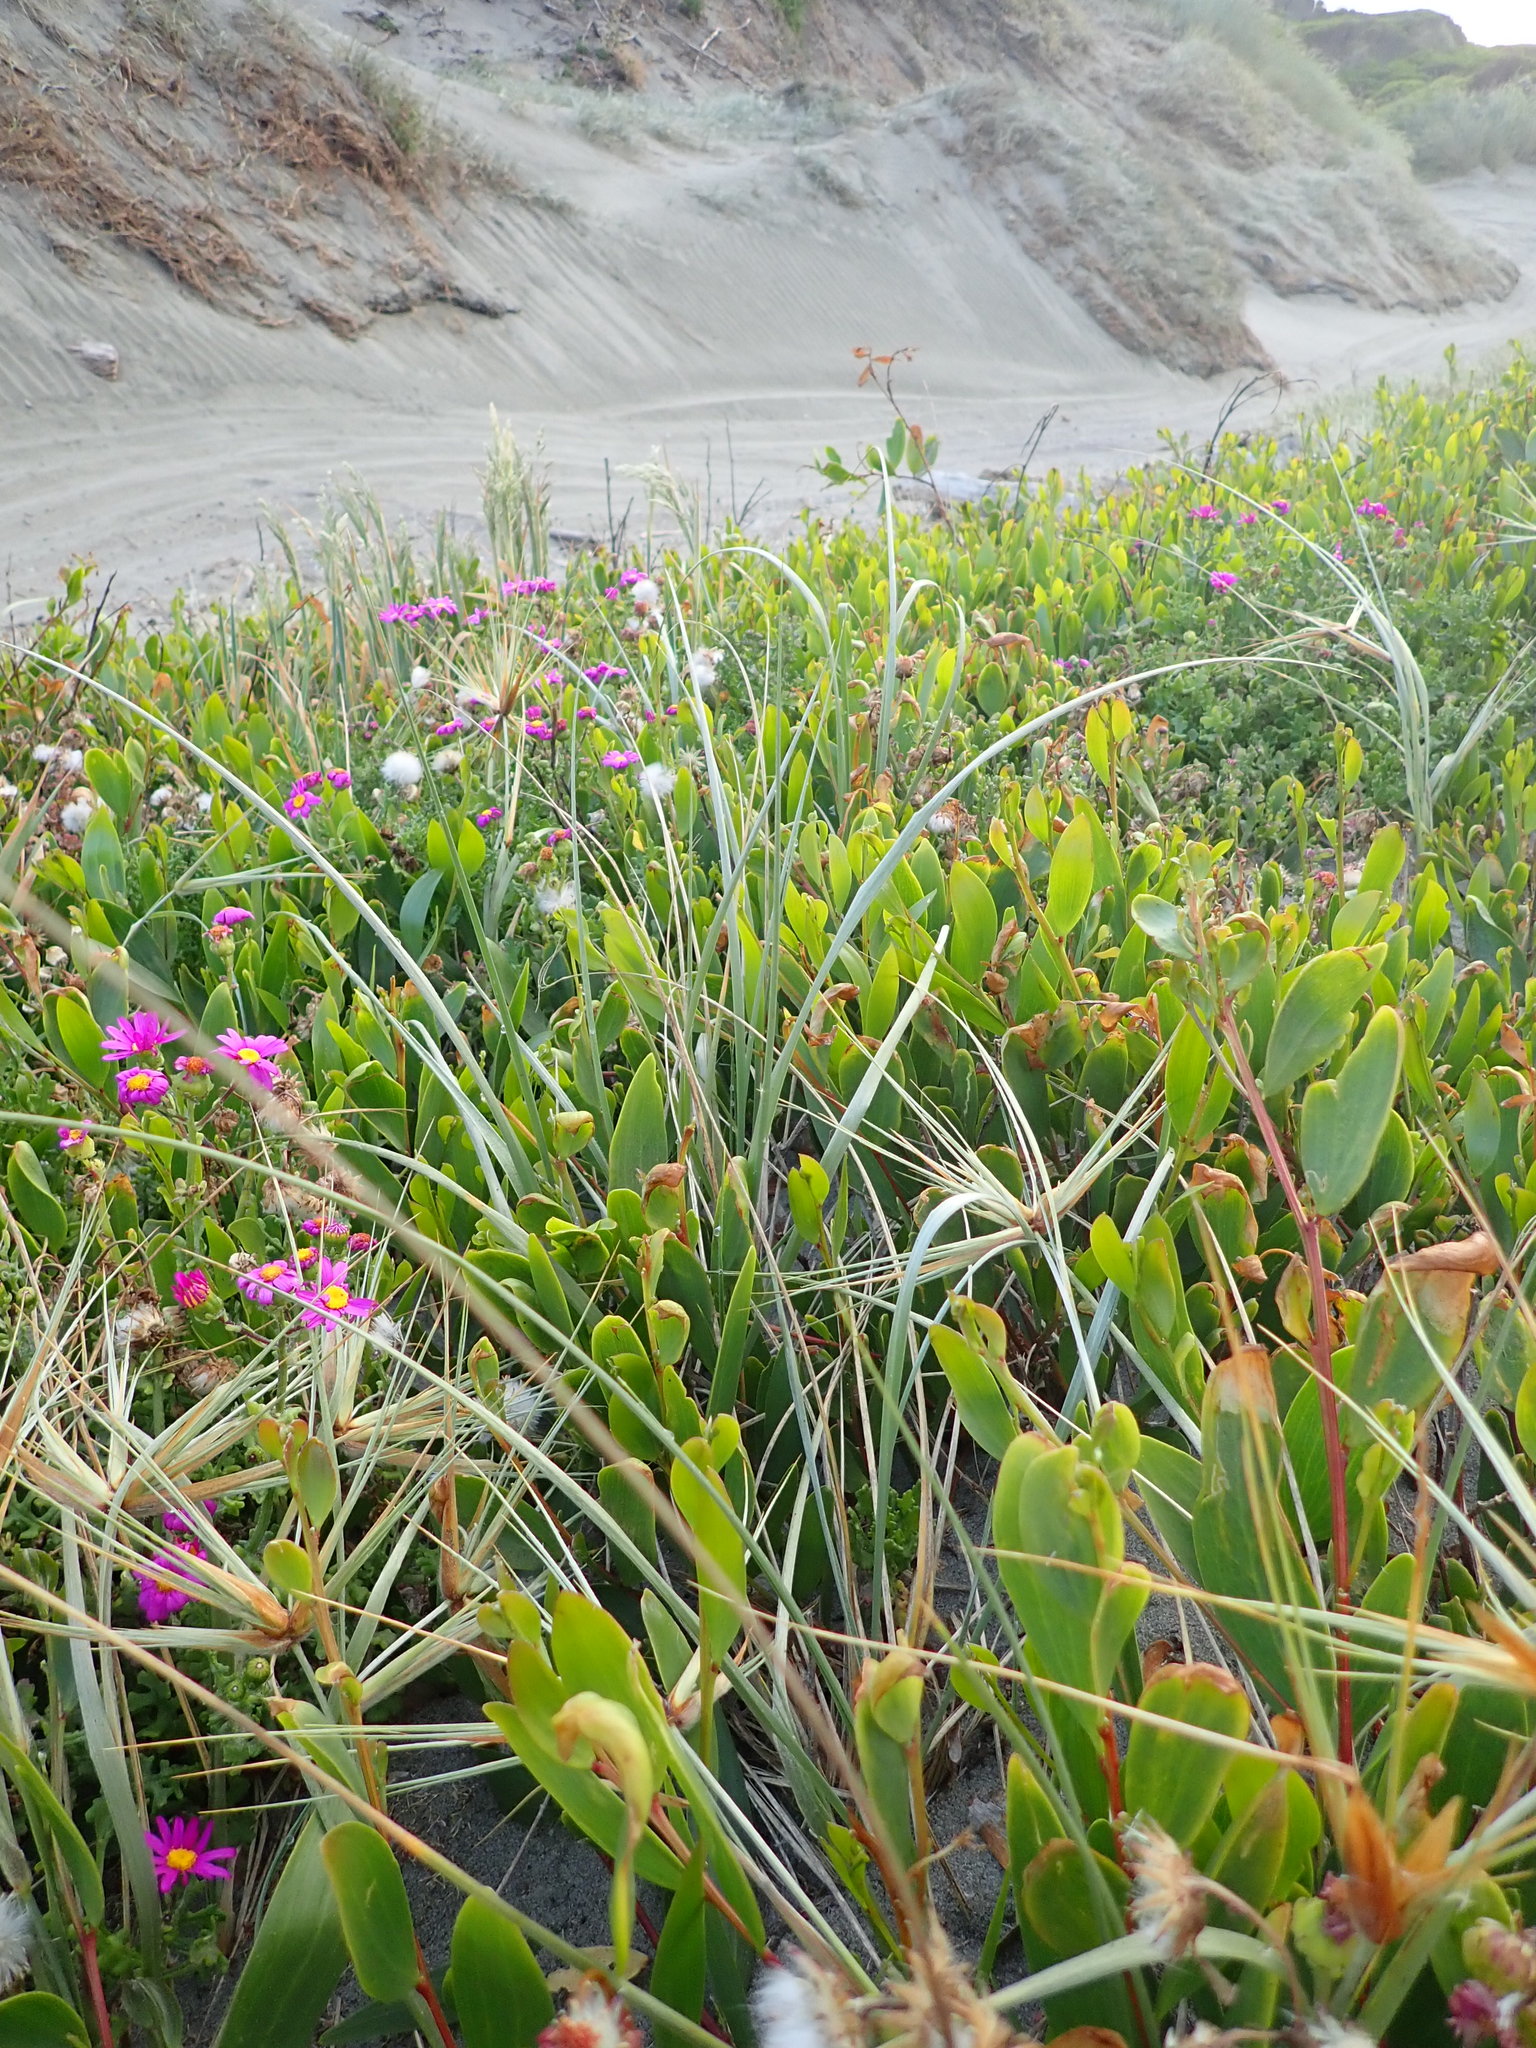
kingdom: Plantae
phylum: Tracheophyta
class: Magnoliopsida
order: Asterales
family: Asteraceae
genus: Senecio
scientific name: Senecio elegans
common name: Purple groundsel
